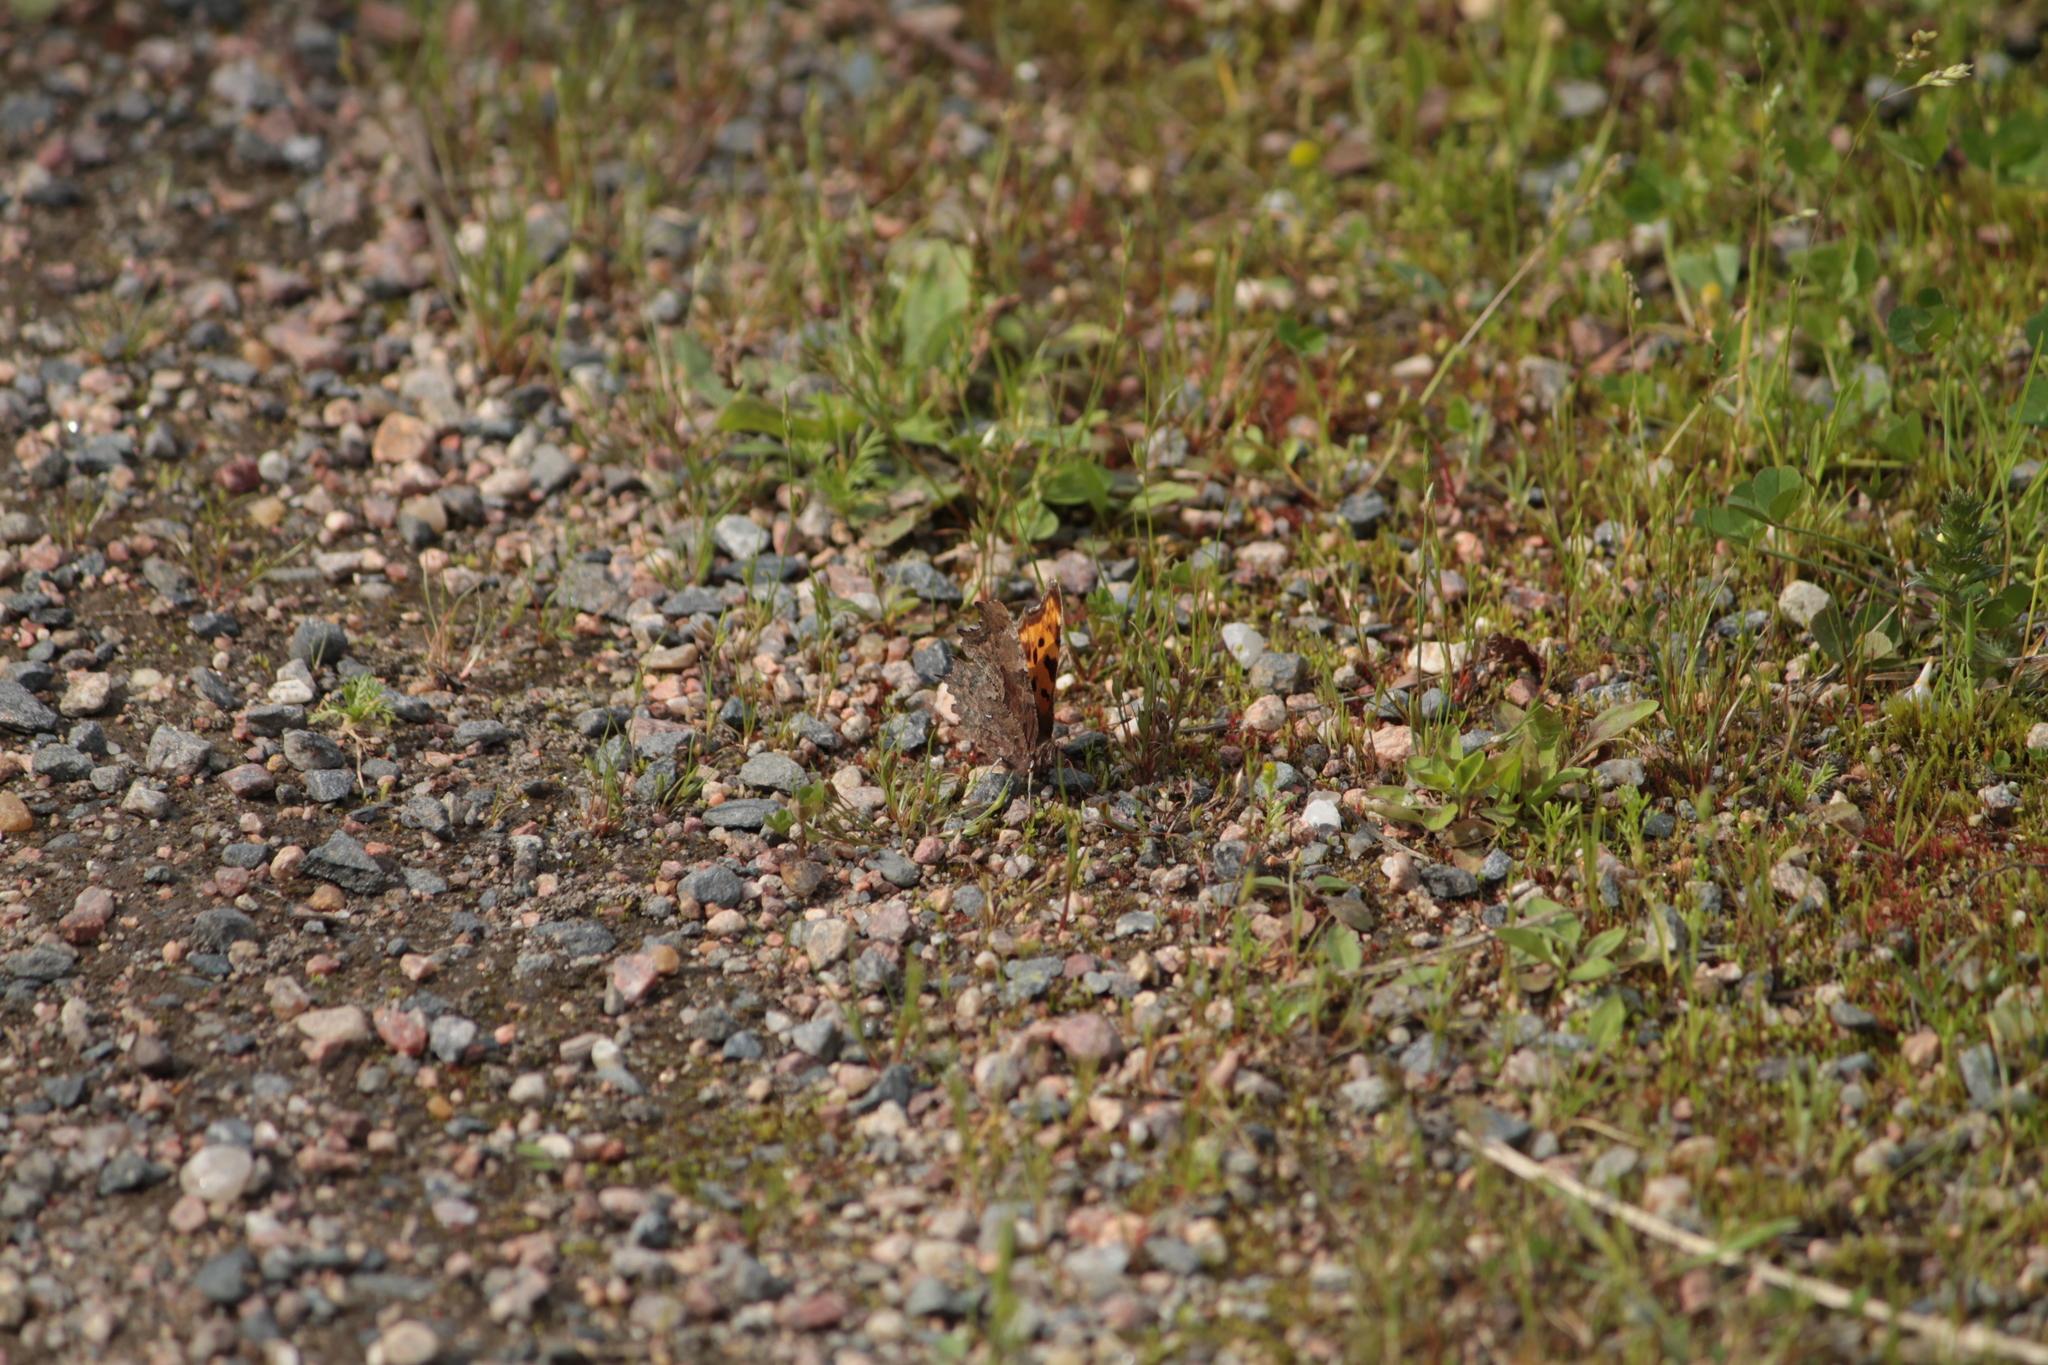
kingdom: Animalia
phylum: Arthropoda
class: Insecta
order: Lepidoptera
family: Nymphalidae
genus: Polygonia
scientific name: Polygonia c-album
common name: Comma
